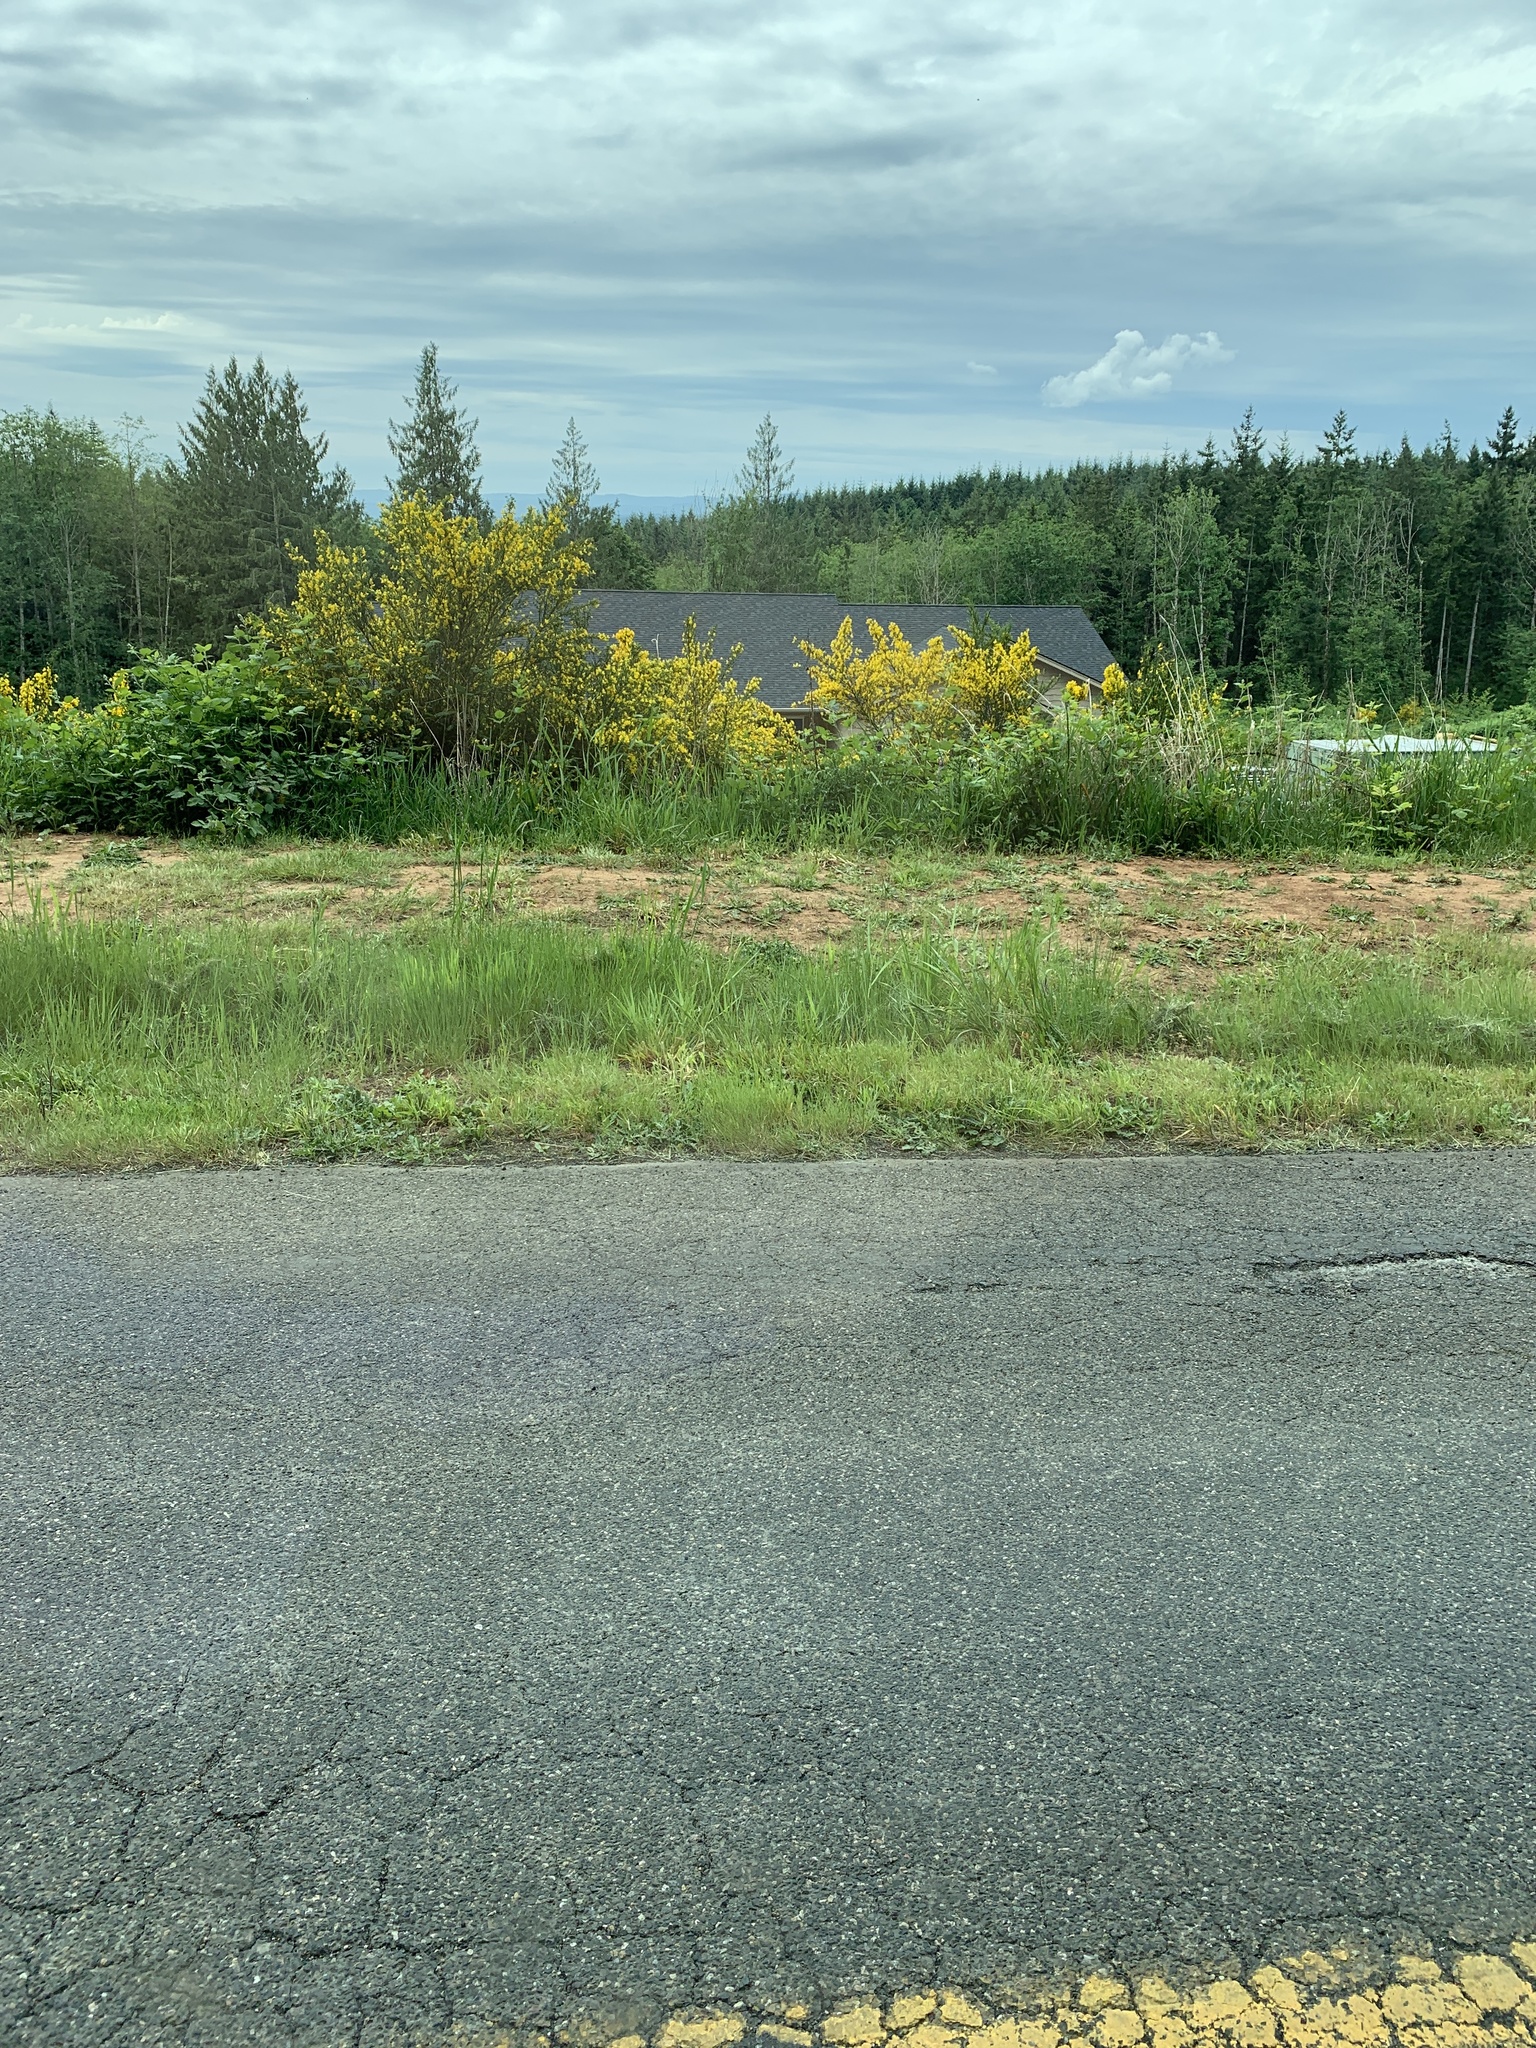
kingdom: Plantae
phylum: Tracheophyta
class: Magnoliopsida
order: Fabales
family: Fabaceae
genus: Cytisus
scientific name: Cytisus scoparius
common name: Scotch broom
